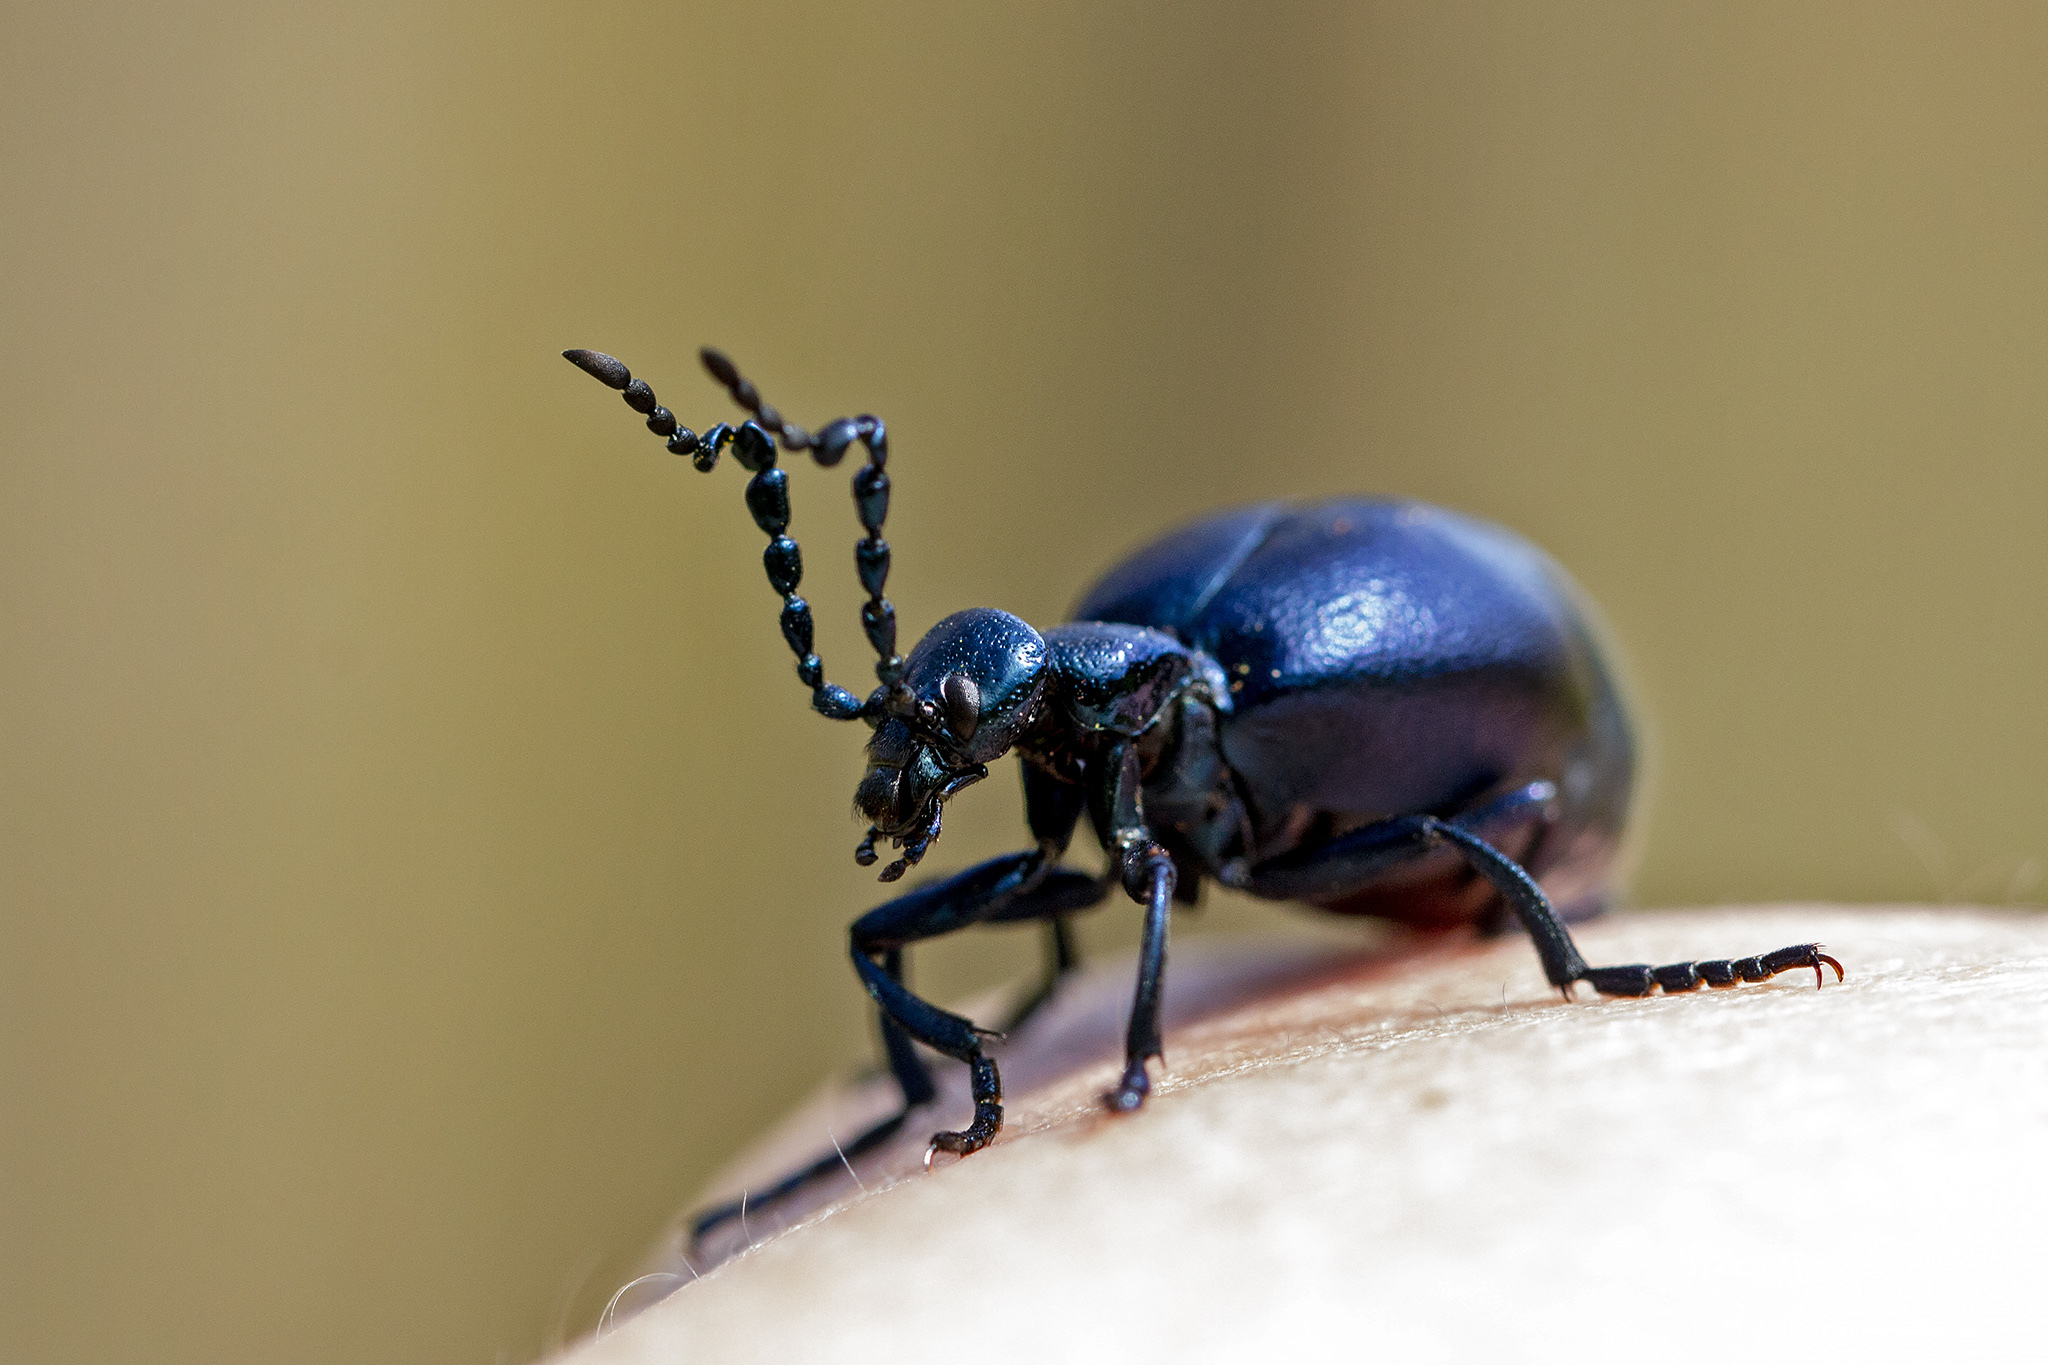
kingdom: Animalia
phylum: Arthropoda
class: Insecta
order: Coleoptera
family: Meloidae
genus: Meloe
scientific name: Meloe violaceus
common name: Violet oil-beetle
